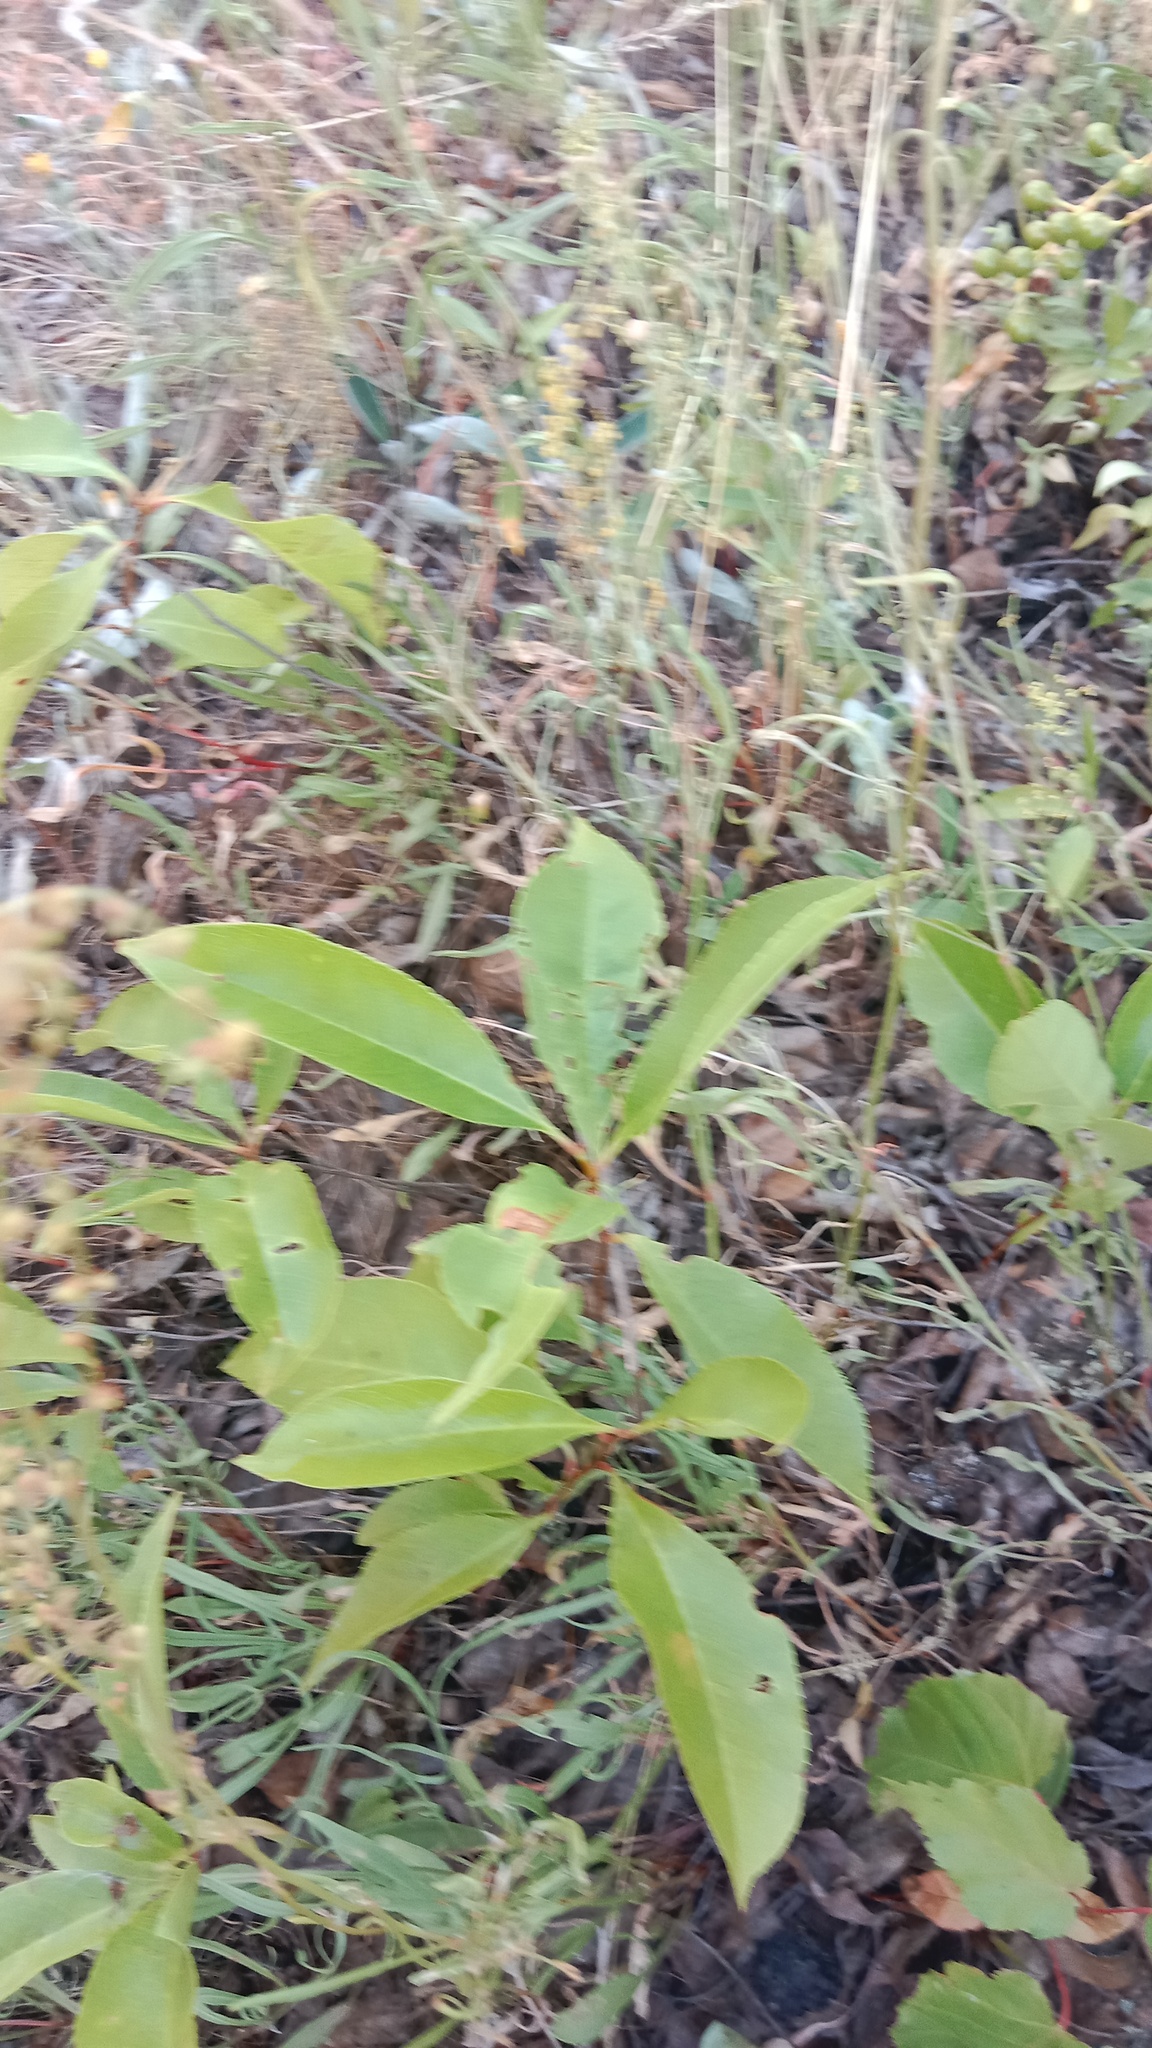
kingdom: Plantae
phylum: Tracheophyta
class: Magnoliopsida
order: Rosales
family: Rosaceae
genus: Prunus
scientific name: Prunus serotina
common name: Black cherry
